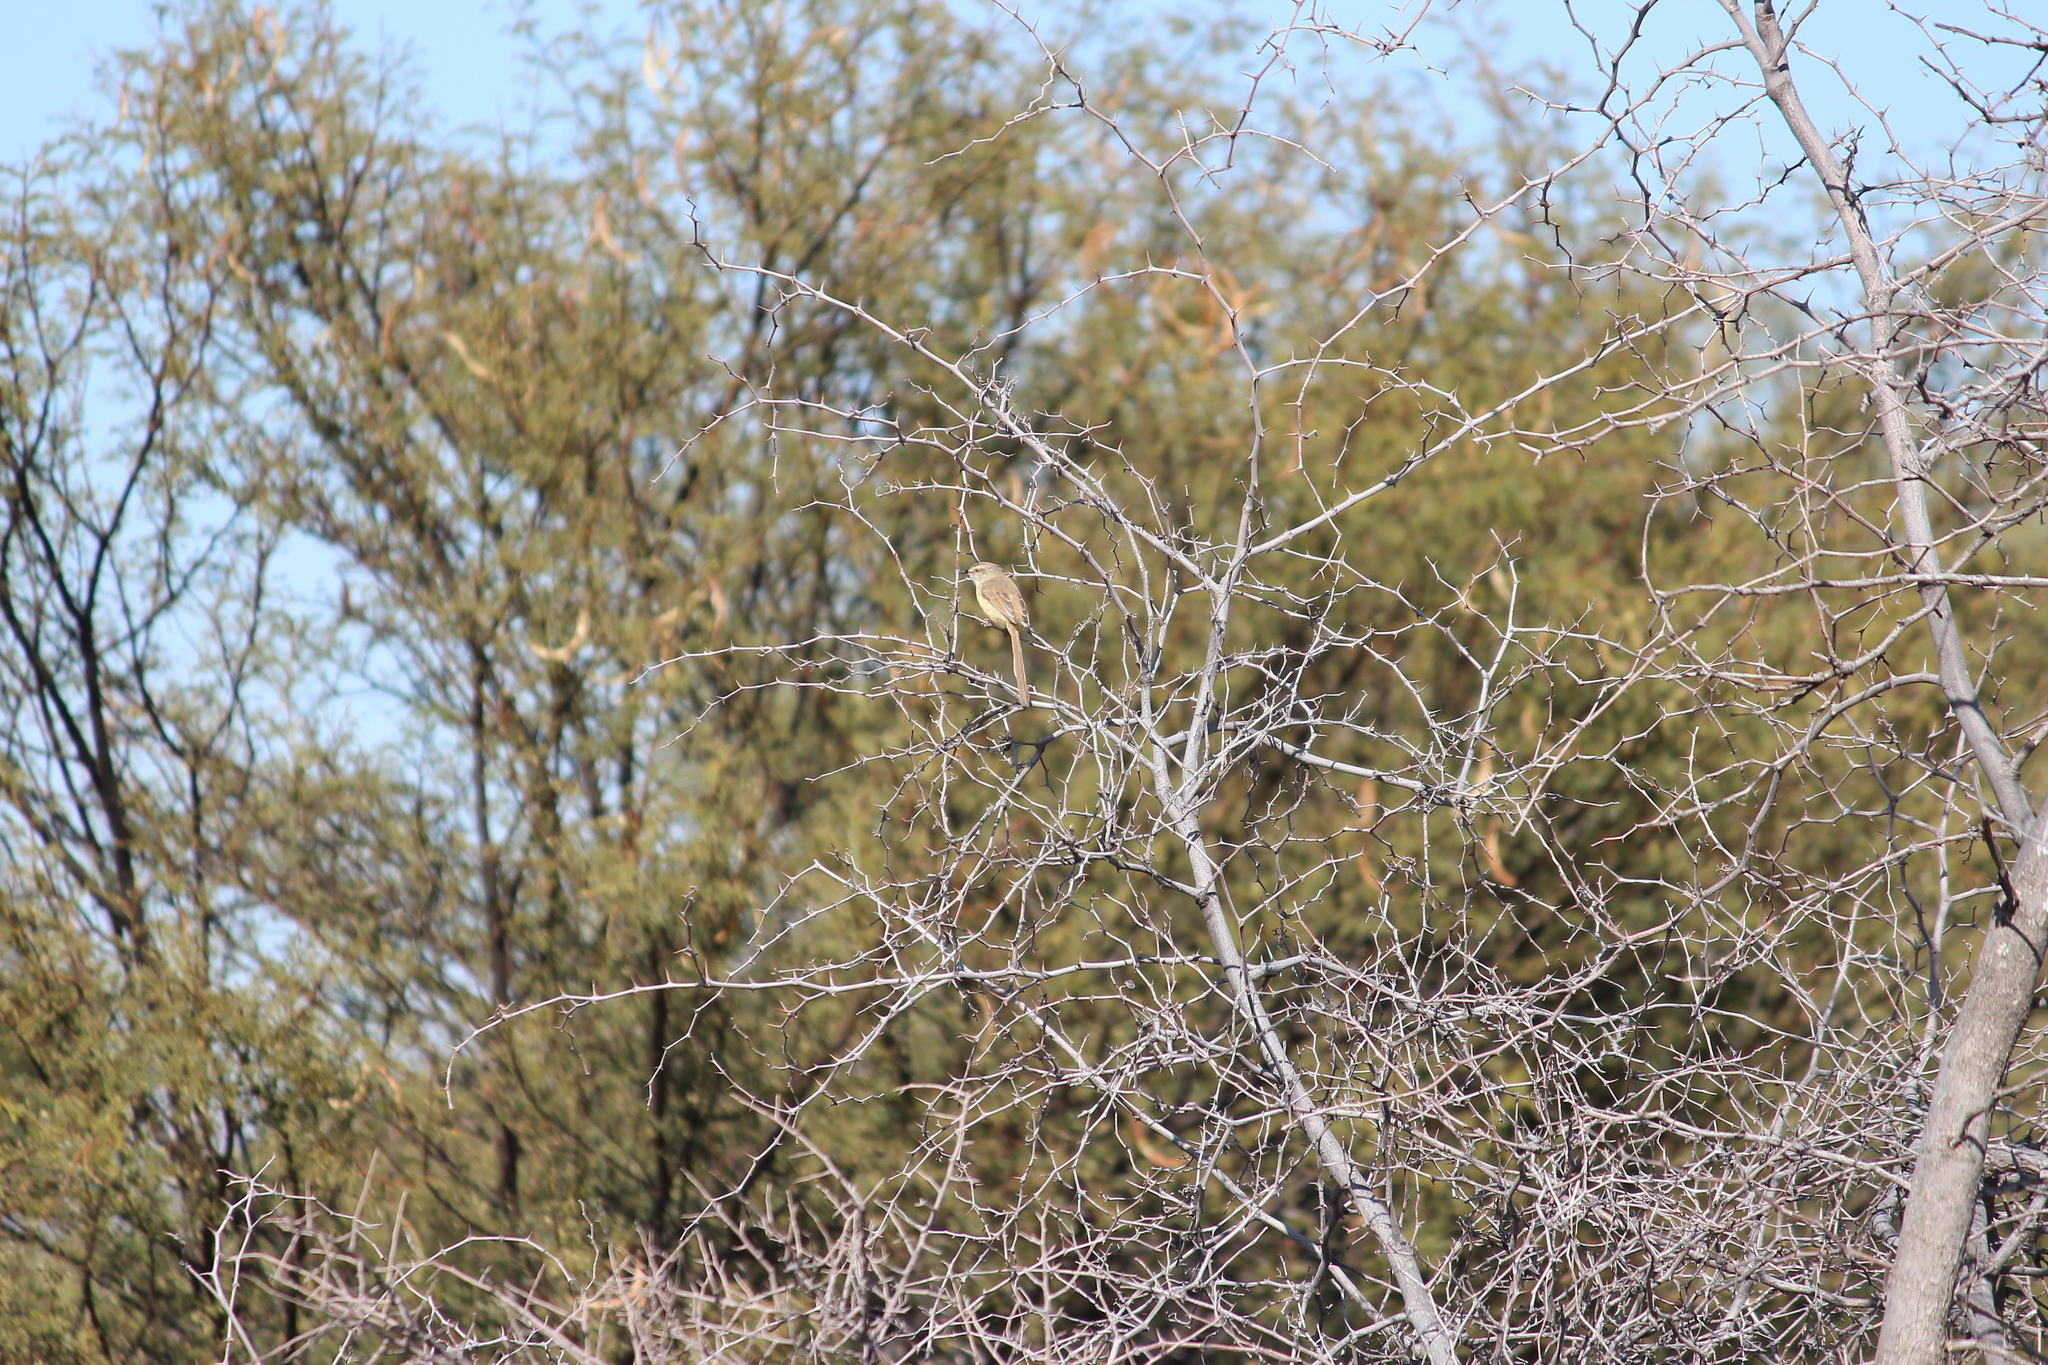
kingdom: Animalia
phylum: Chordata
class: Aves
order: Passeriformes
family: Cisticolidae
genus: Prinia
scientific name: Prinia flavicans
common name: Black-chested prinia
